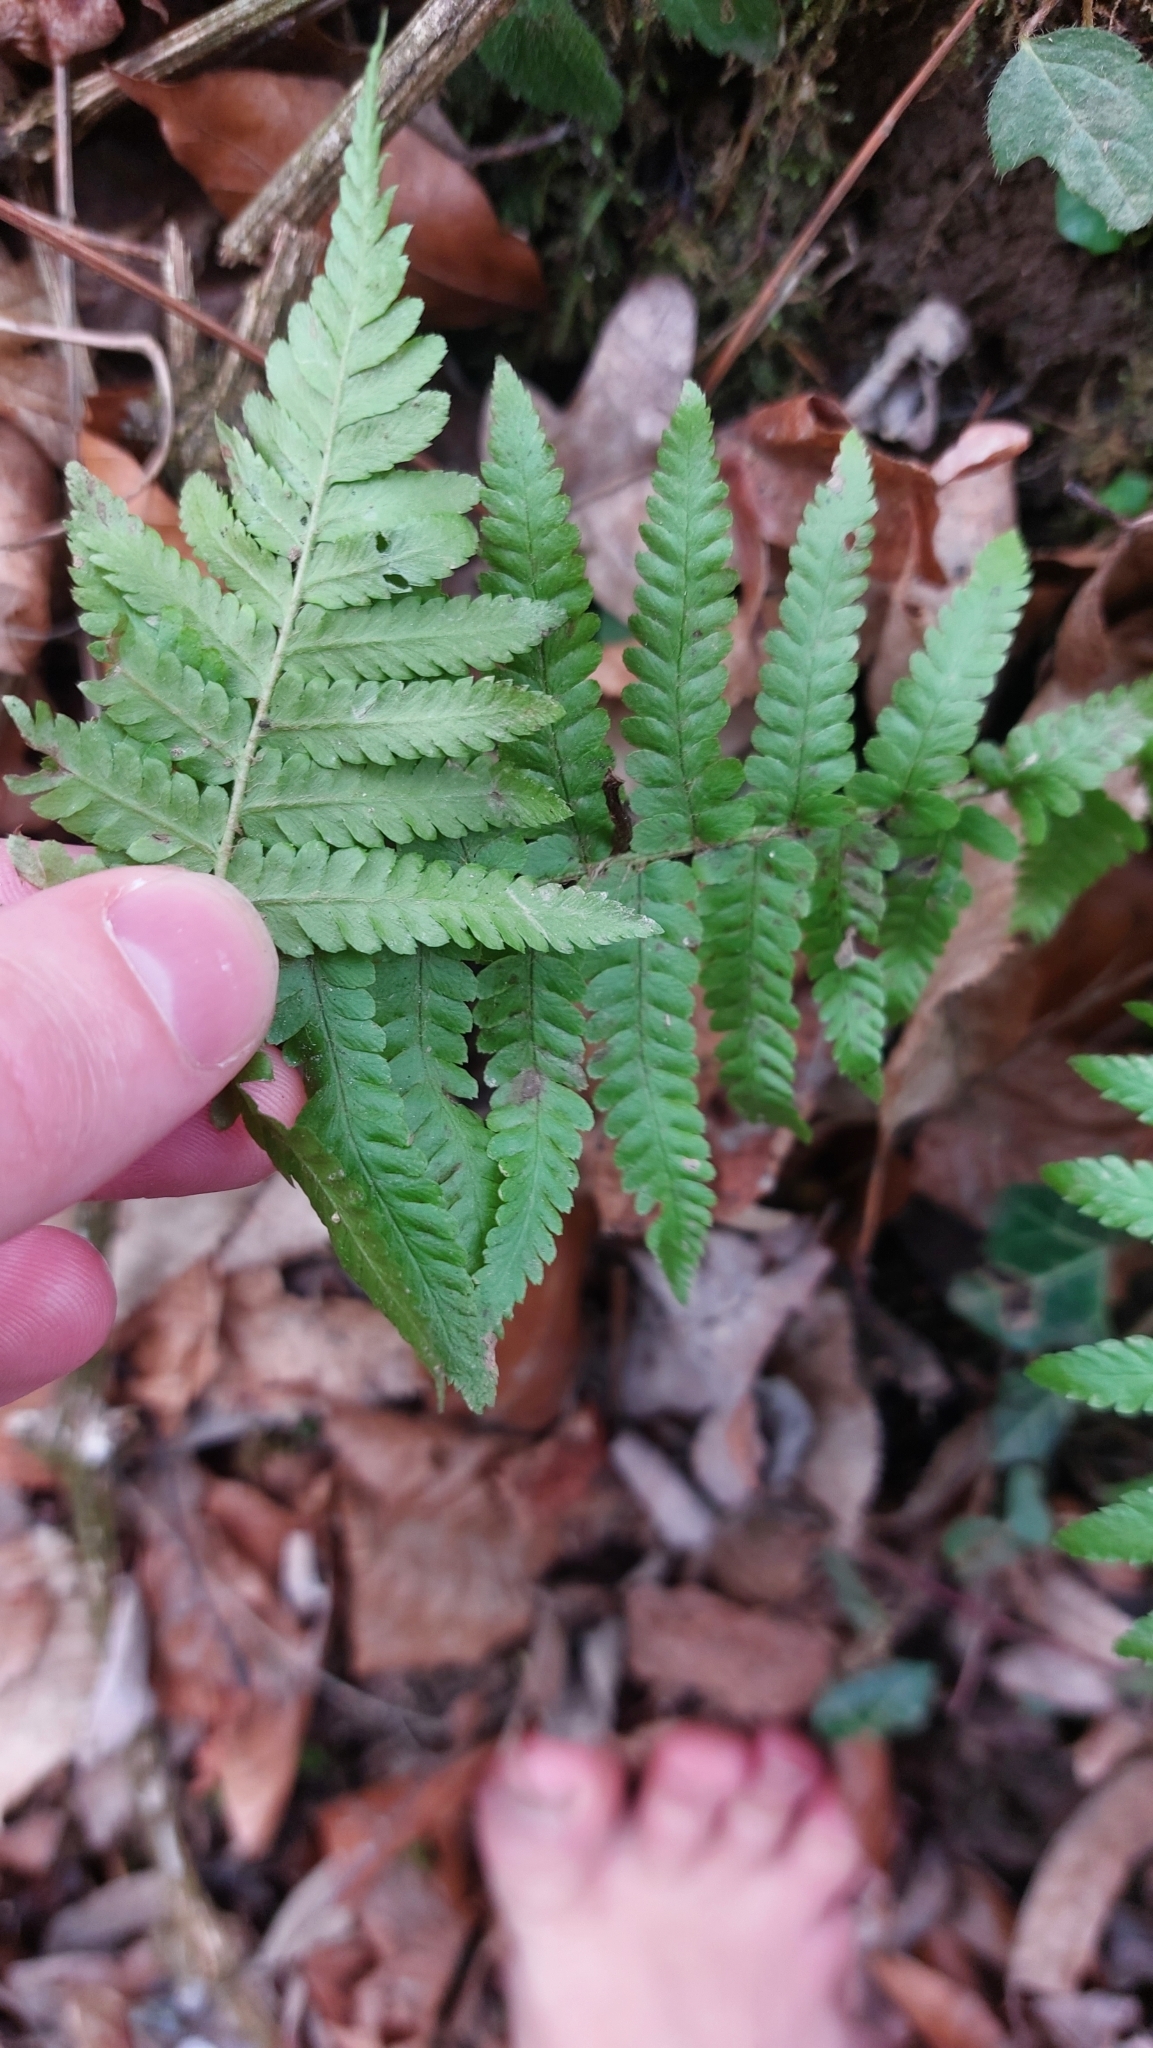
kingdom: Plantae
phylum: Tracheophyta
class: Polypodiopsida
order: Polypodiales
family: Dryopteridaceae
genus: Dryopteris
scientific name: Dryopteris filix-mas
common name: Male fern
